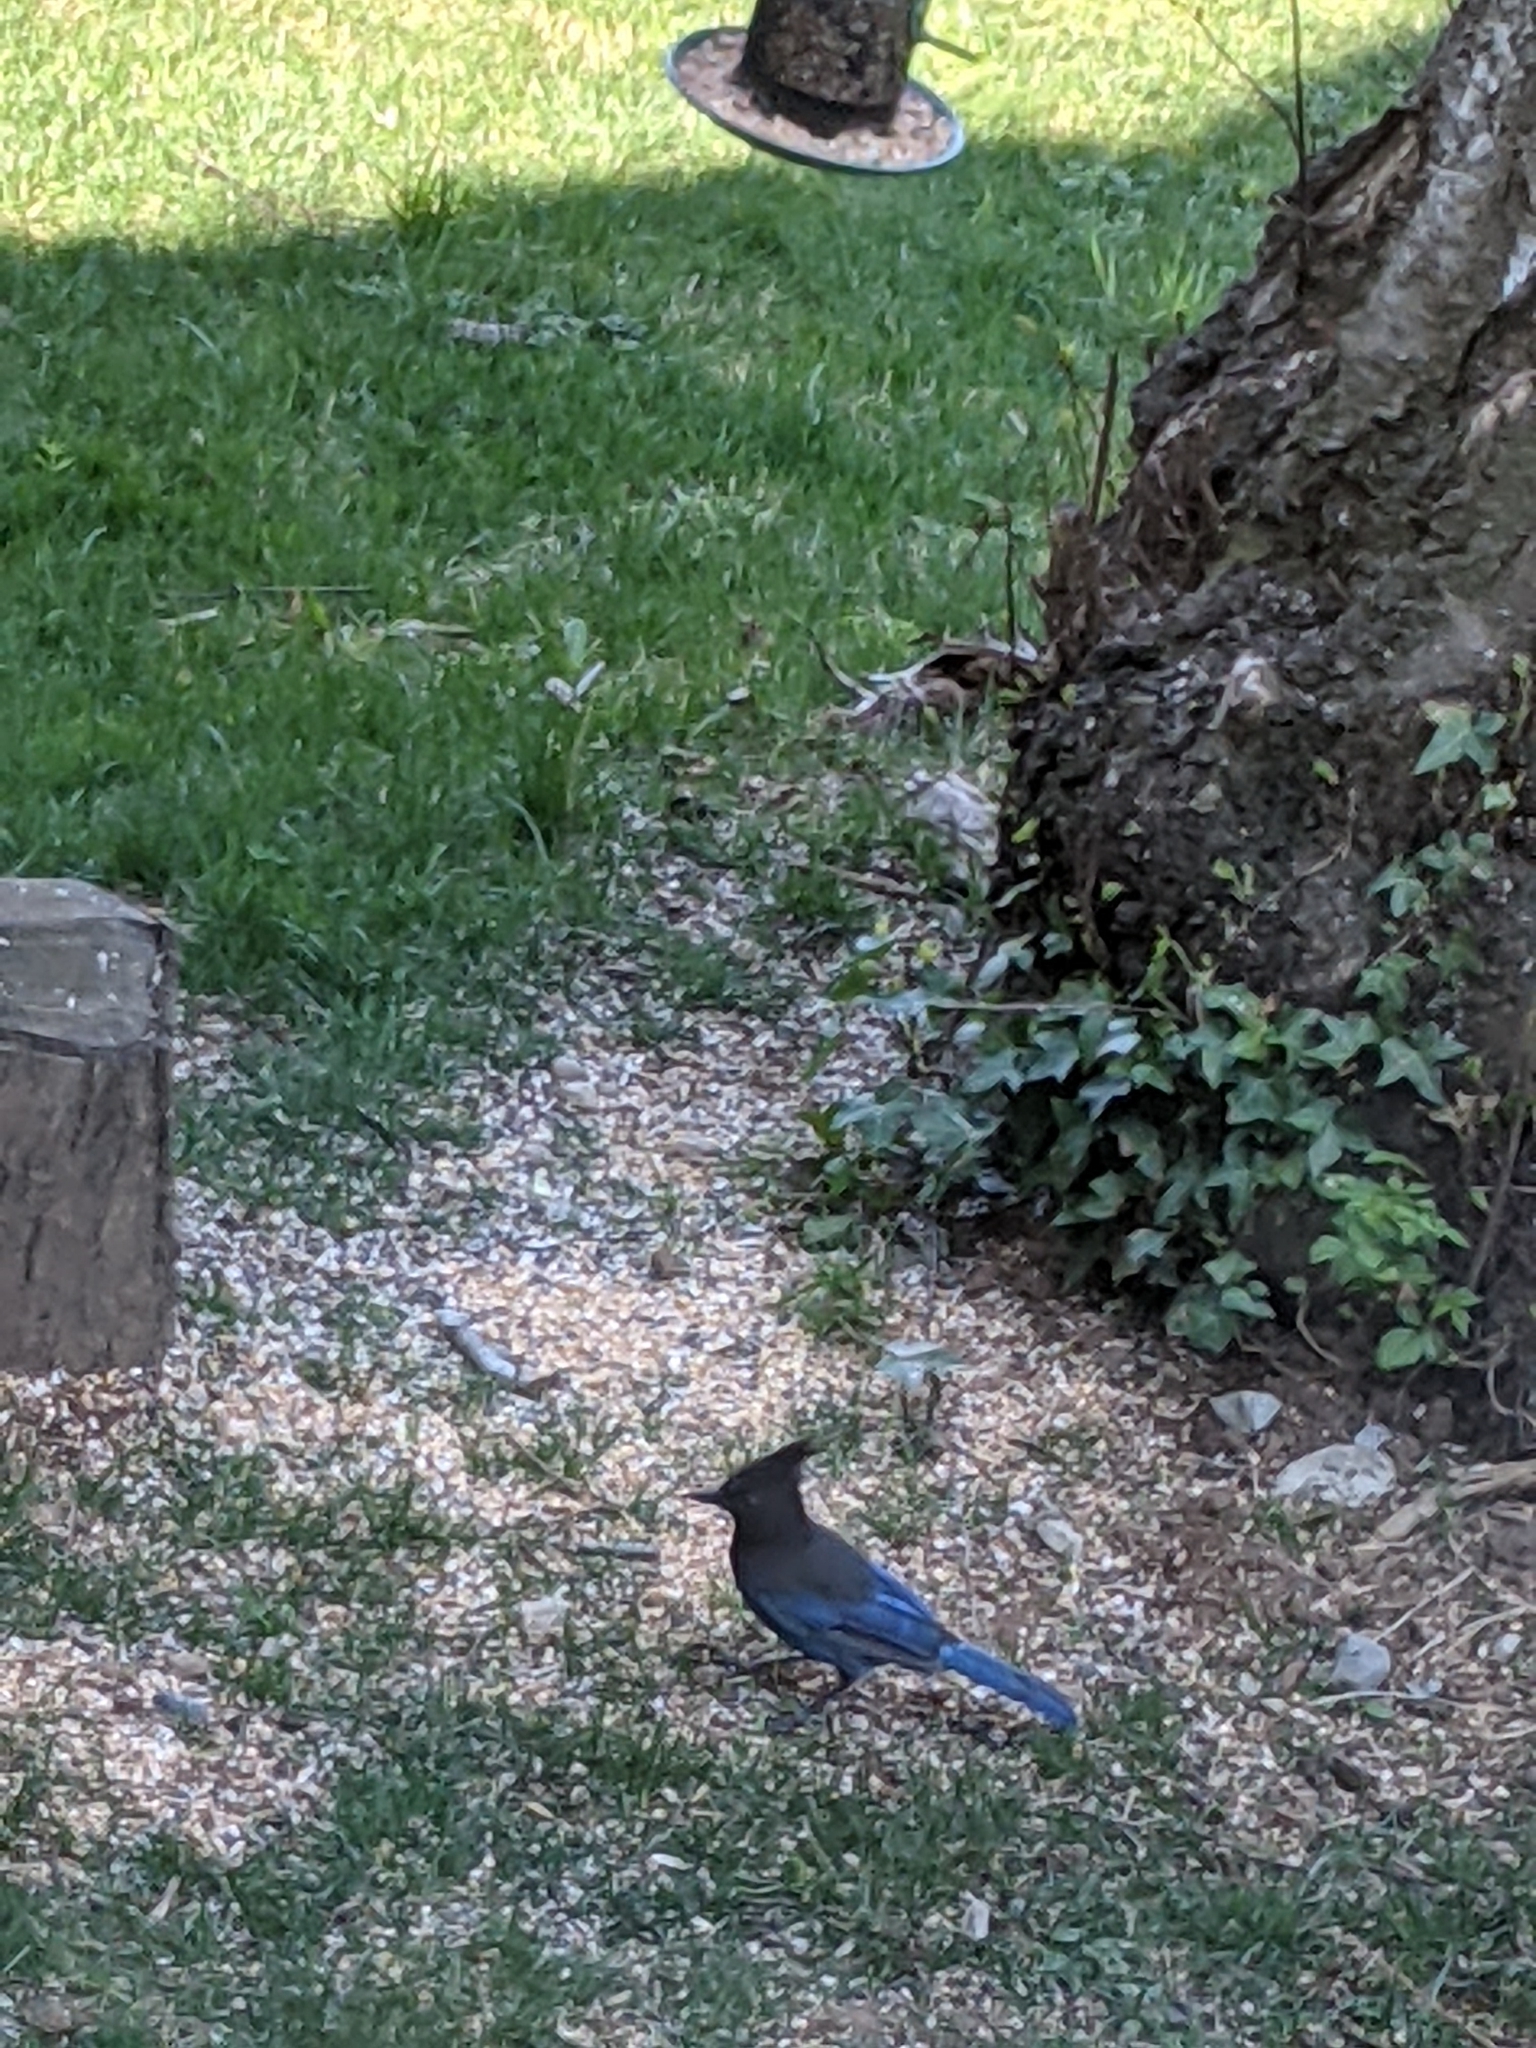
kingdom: Animalia
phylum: Chordata
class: Aves
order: Passeriformes
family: Corvidae
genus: Cyanocitta
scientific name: Cyanocitta stelleri
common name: Steller's jay
